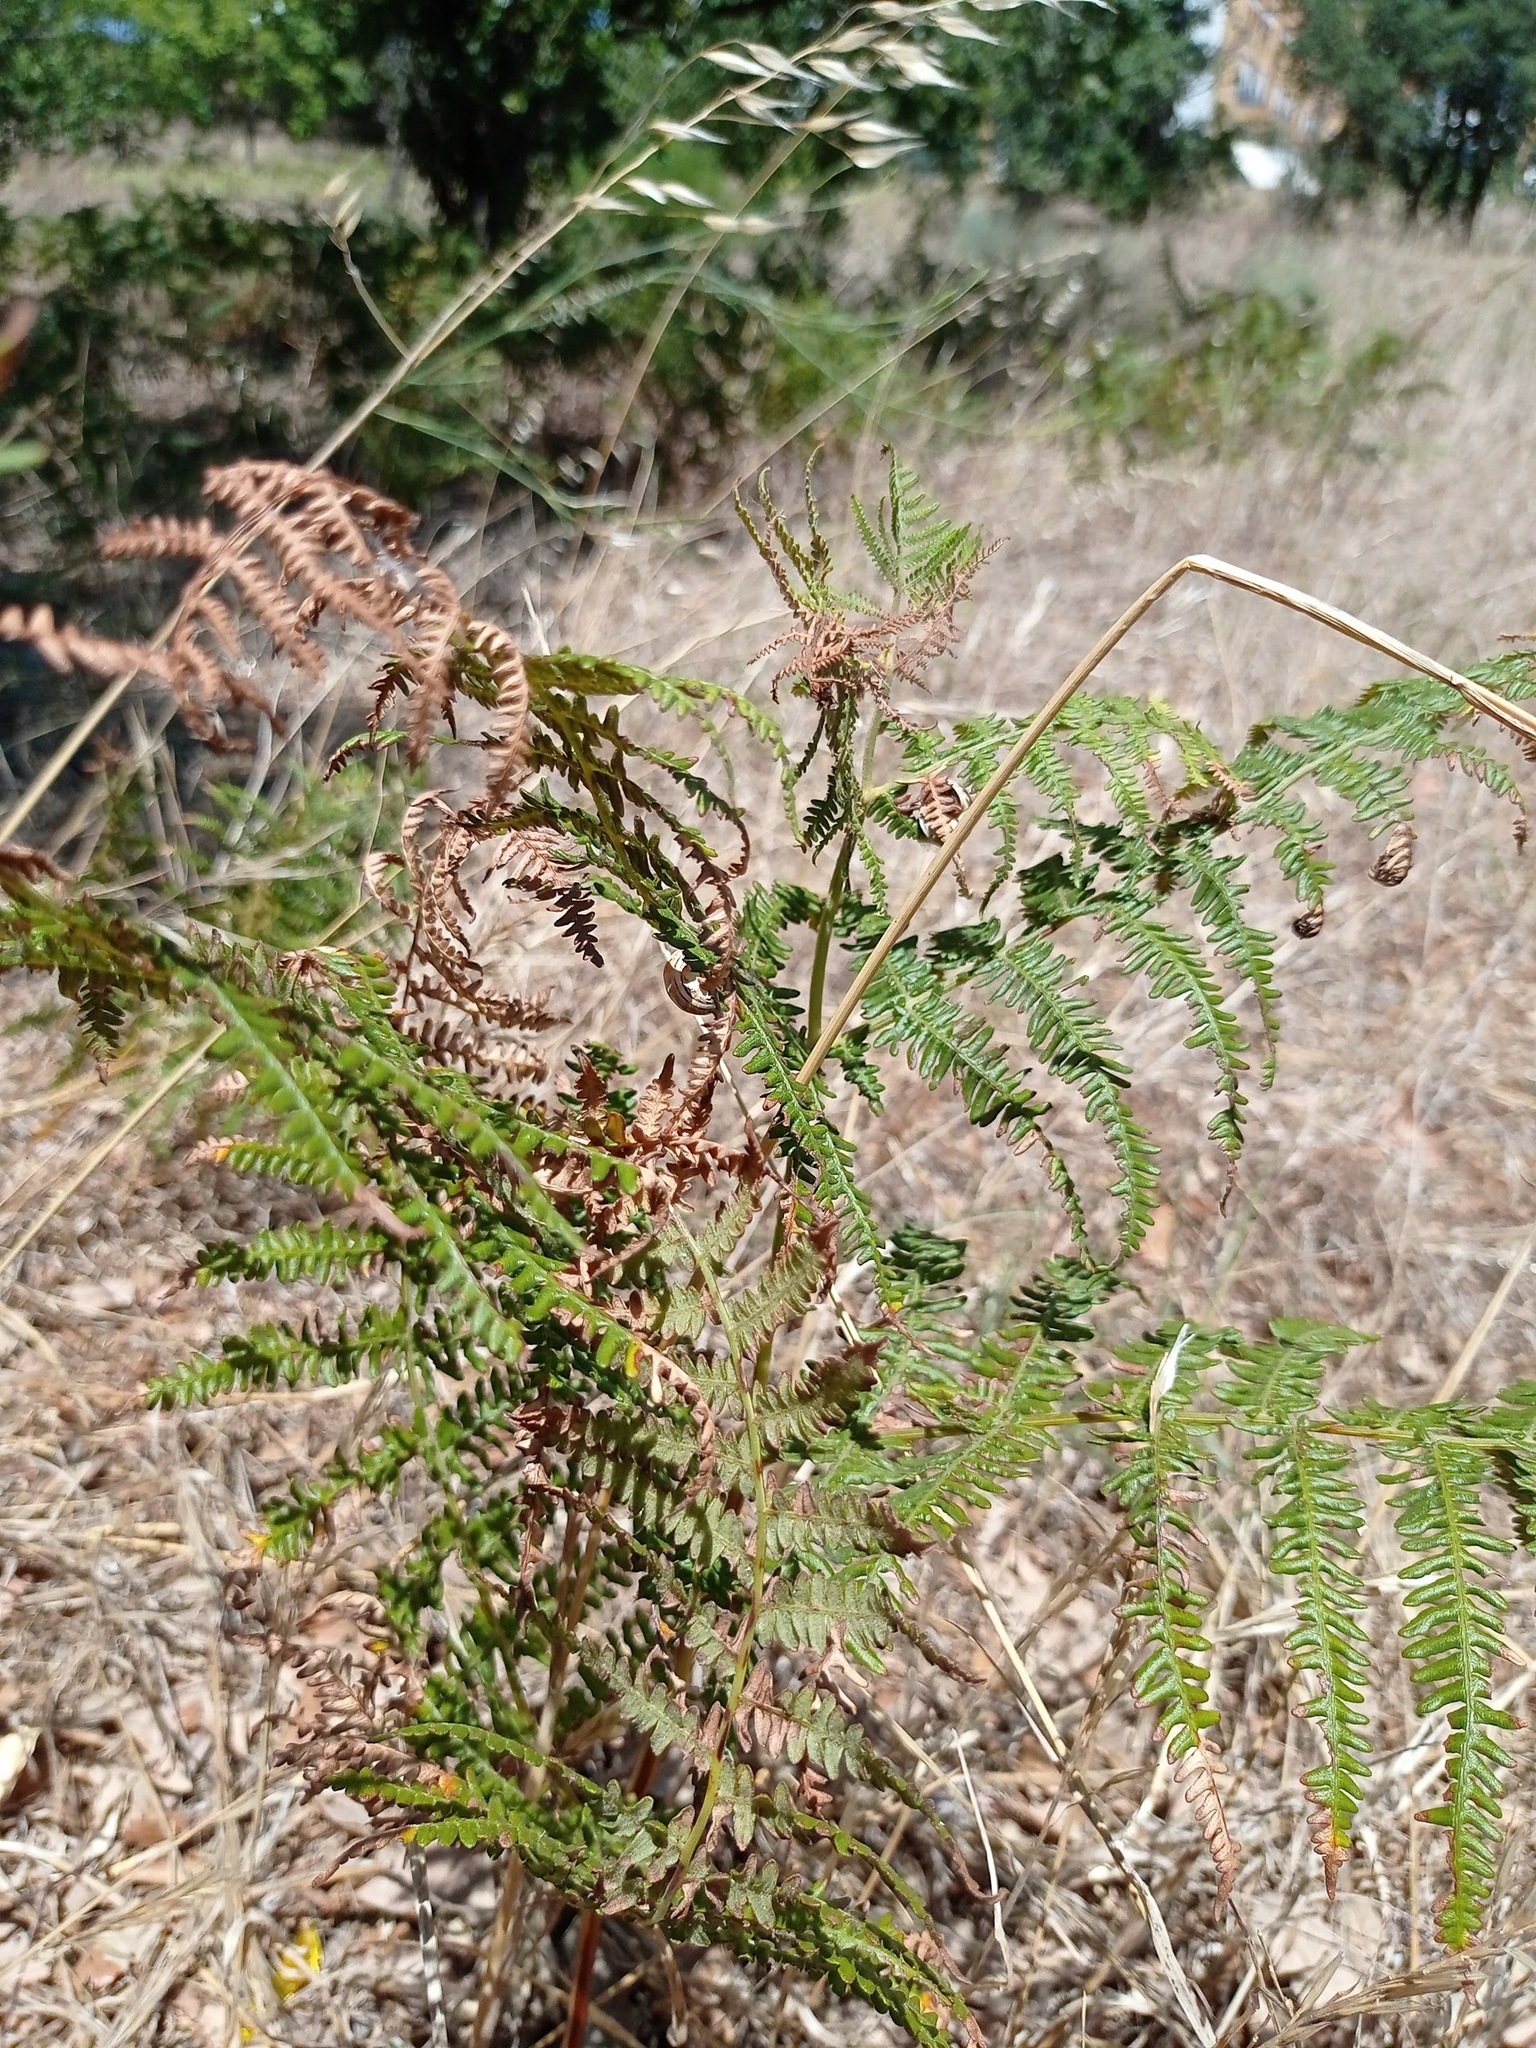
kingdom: Plantae
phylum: Tracheophyta
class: Polypodiopsida
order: Polypodiales
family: Dennstaedtiaceae
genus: Pteridium
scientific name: Pteridium aquilinum
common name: Bracken
